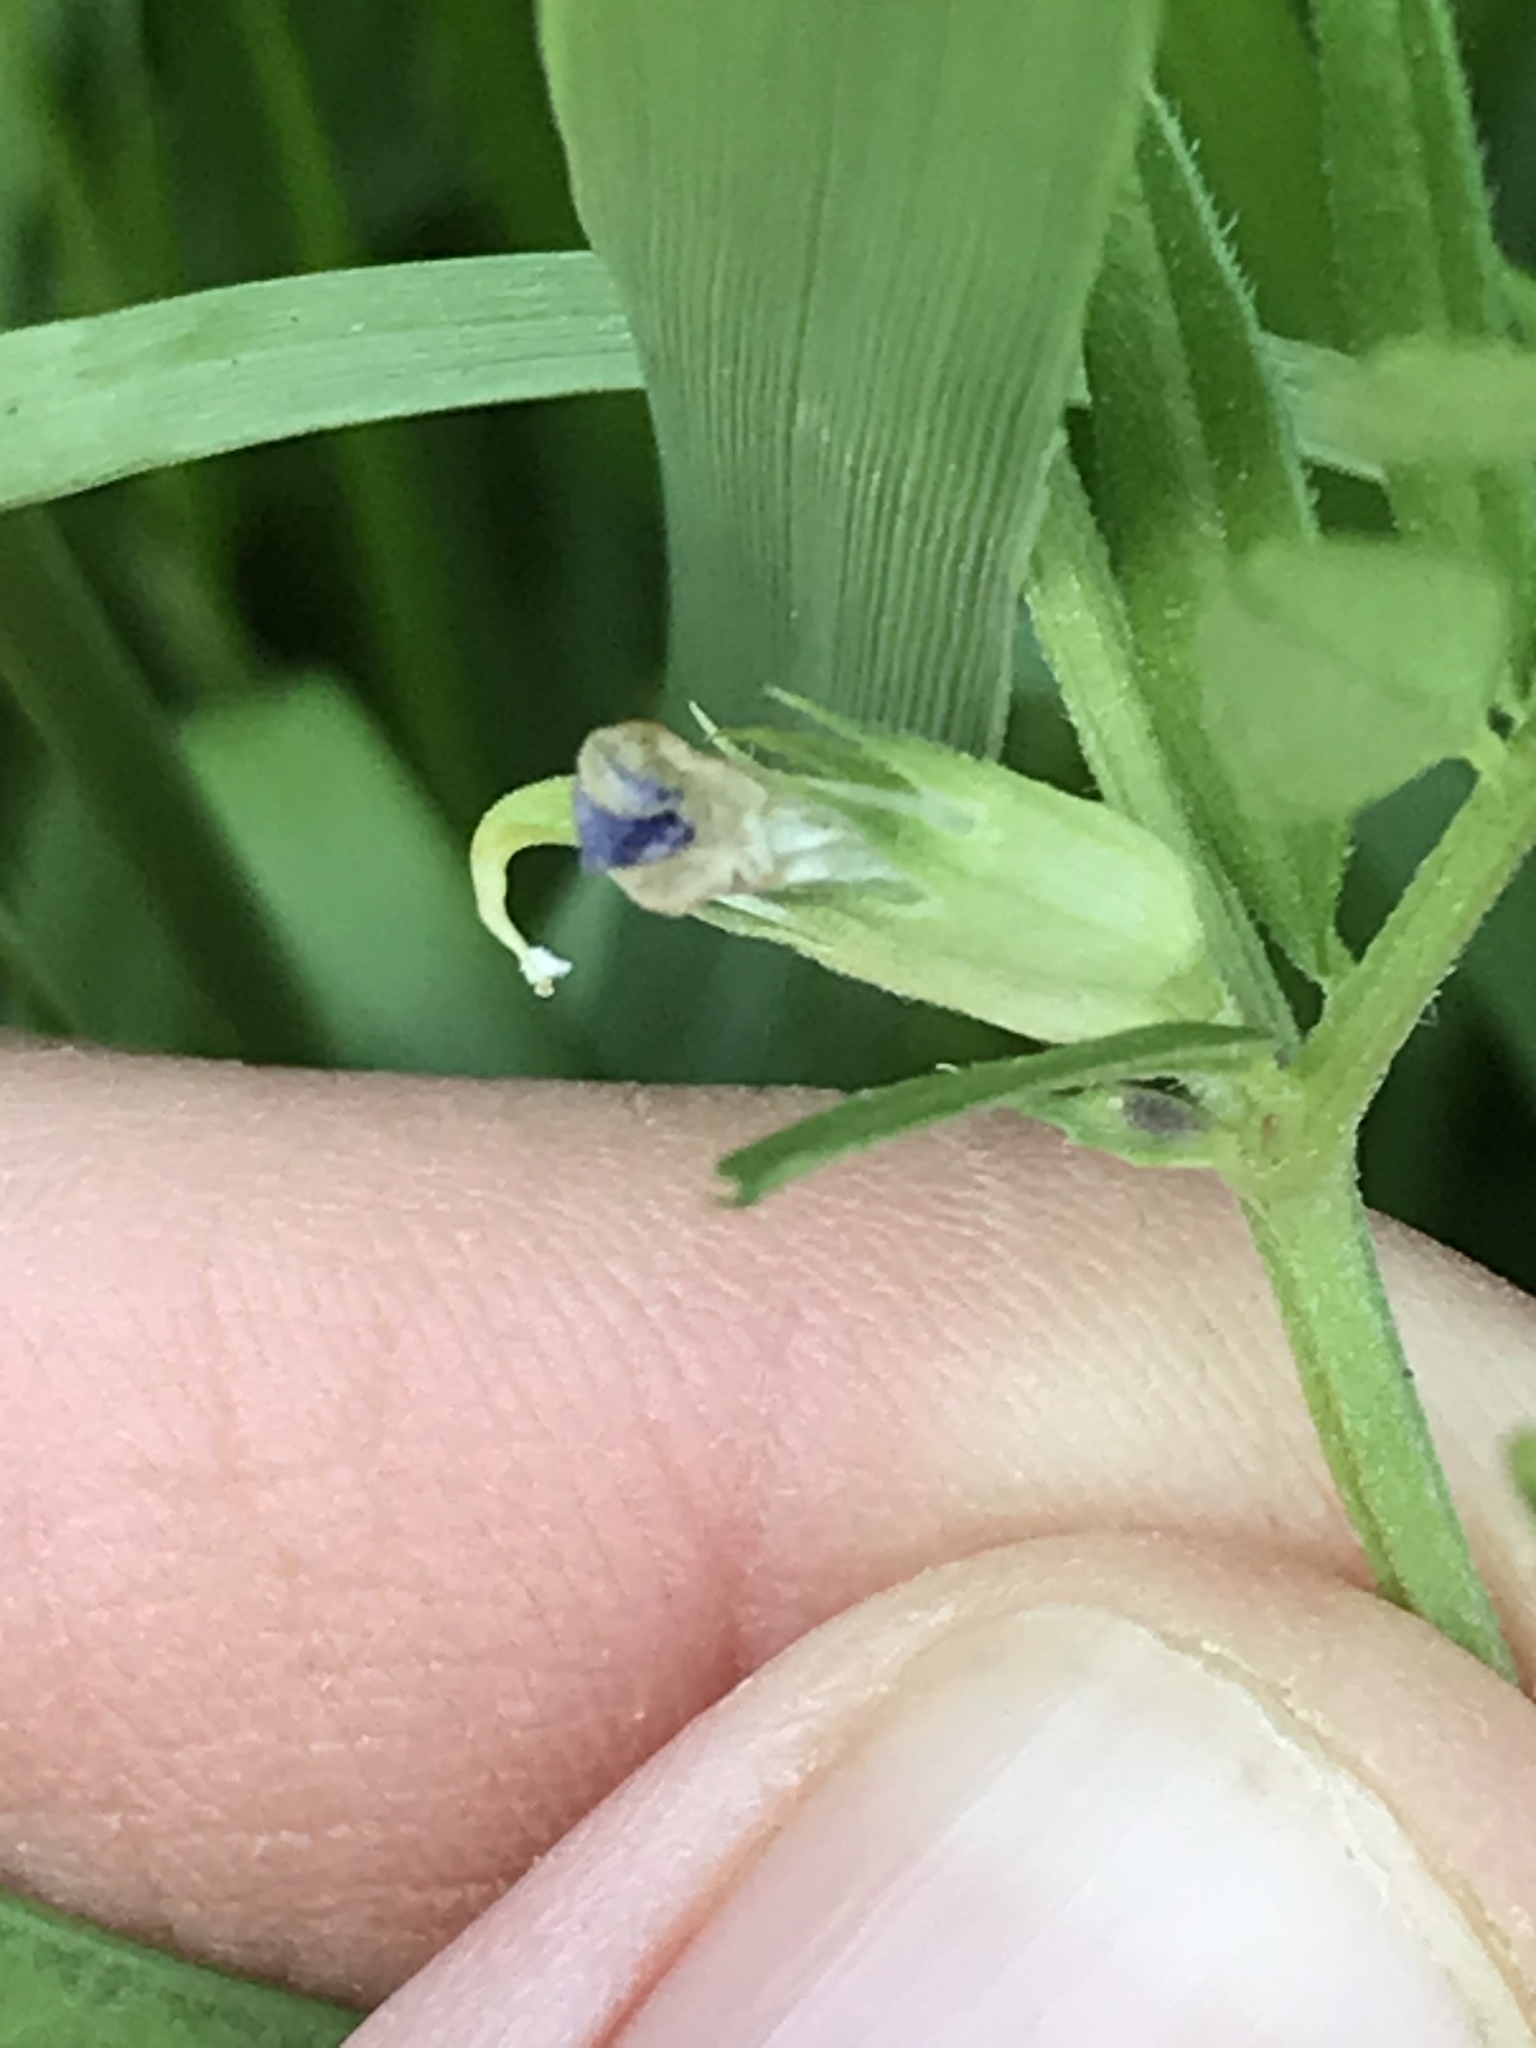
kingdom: Plantae
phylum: Tracheophyta
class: Magnoliopsida
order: Fabales
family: Fabaceae
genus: Vicia
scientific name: Vicia sativa
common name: Garden vetch
